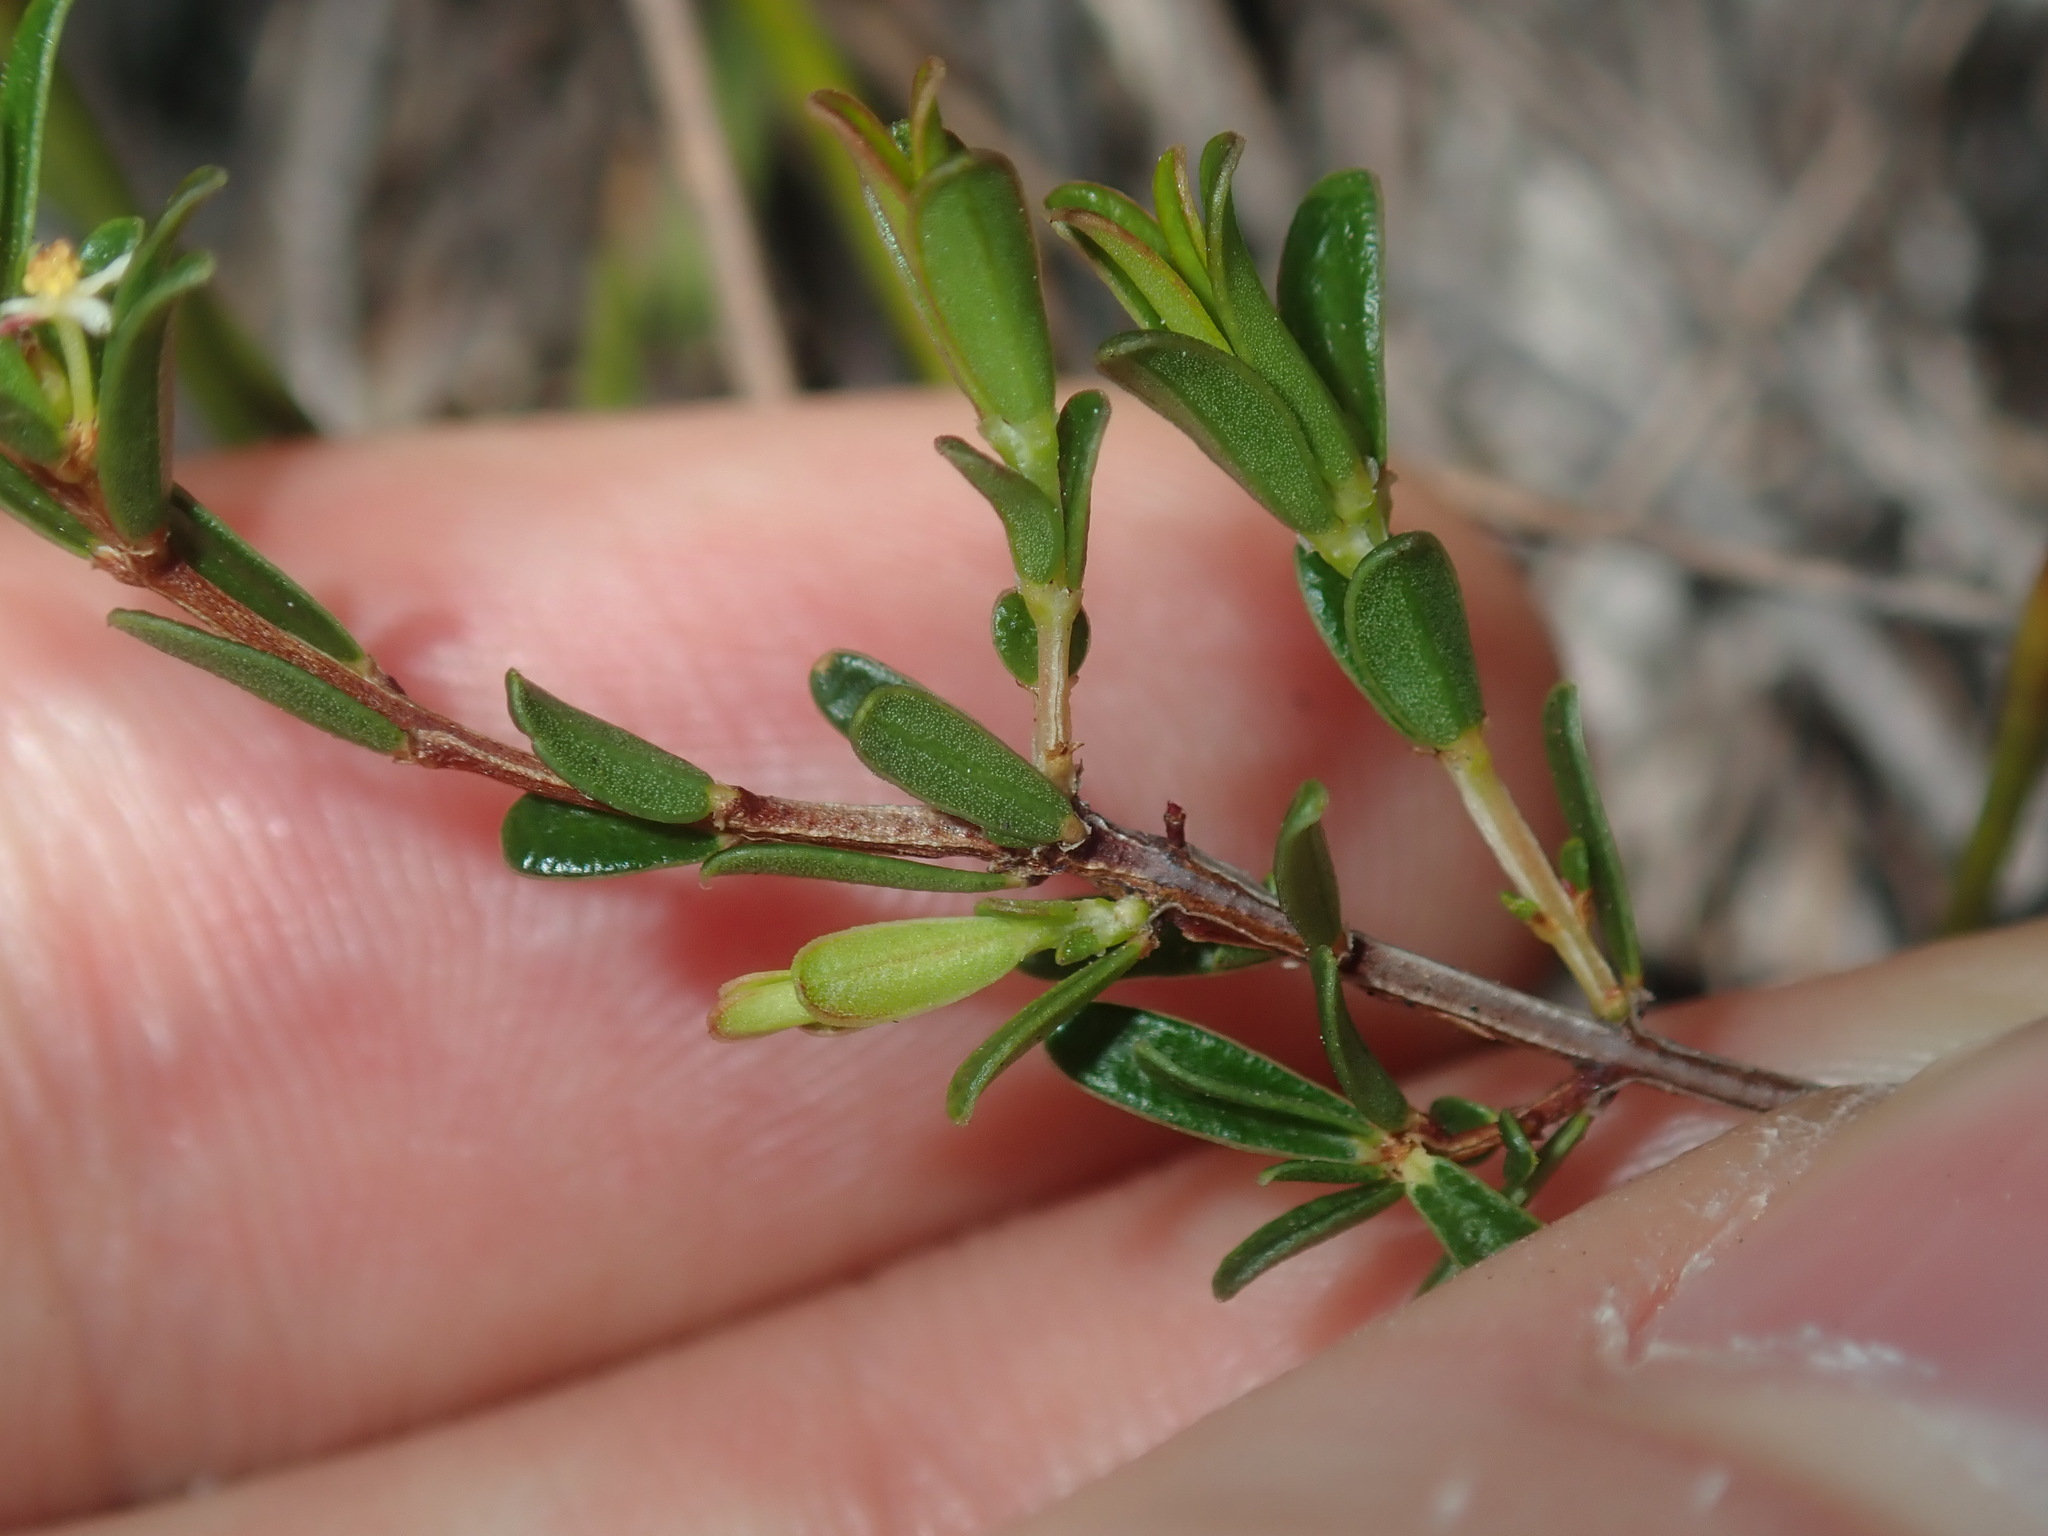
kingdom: Plantae
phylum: Tracheophyta
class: Magnoliopsida
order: Malpighiales
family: Picrodendraceae
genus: Pseudanthus
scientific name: Pseudanthus orientalis
